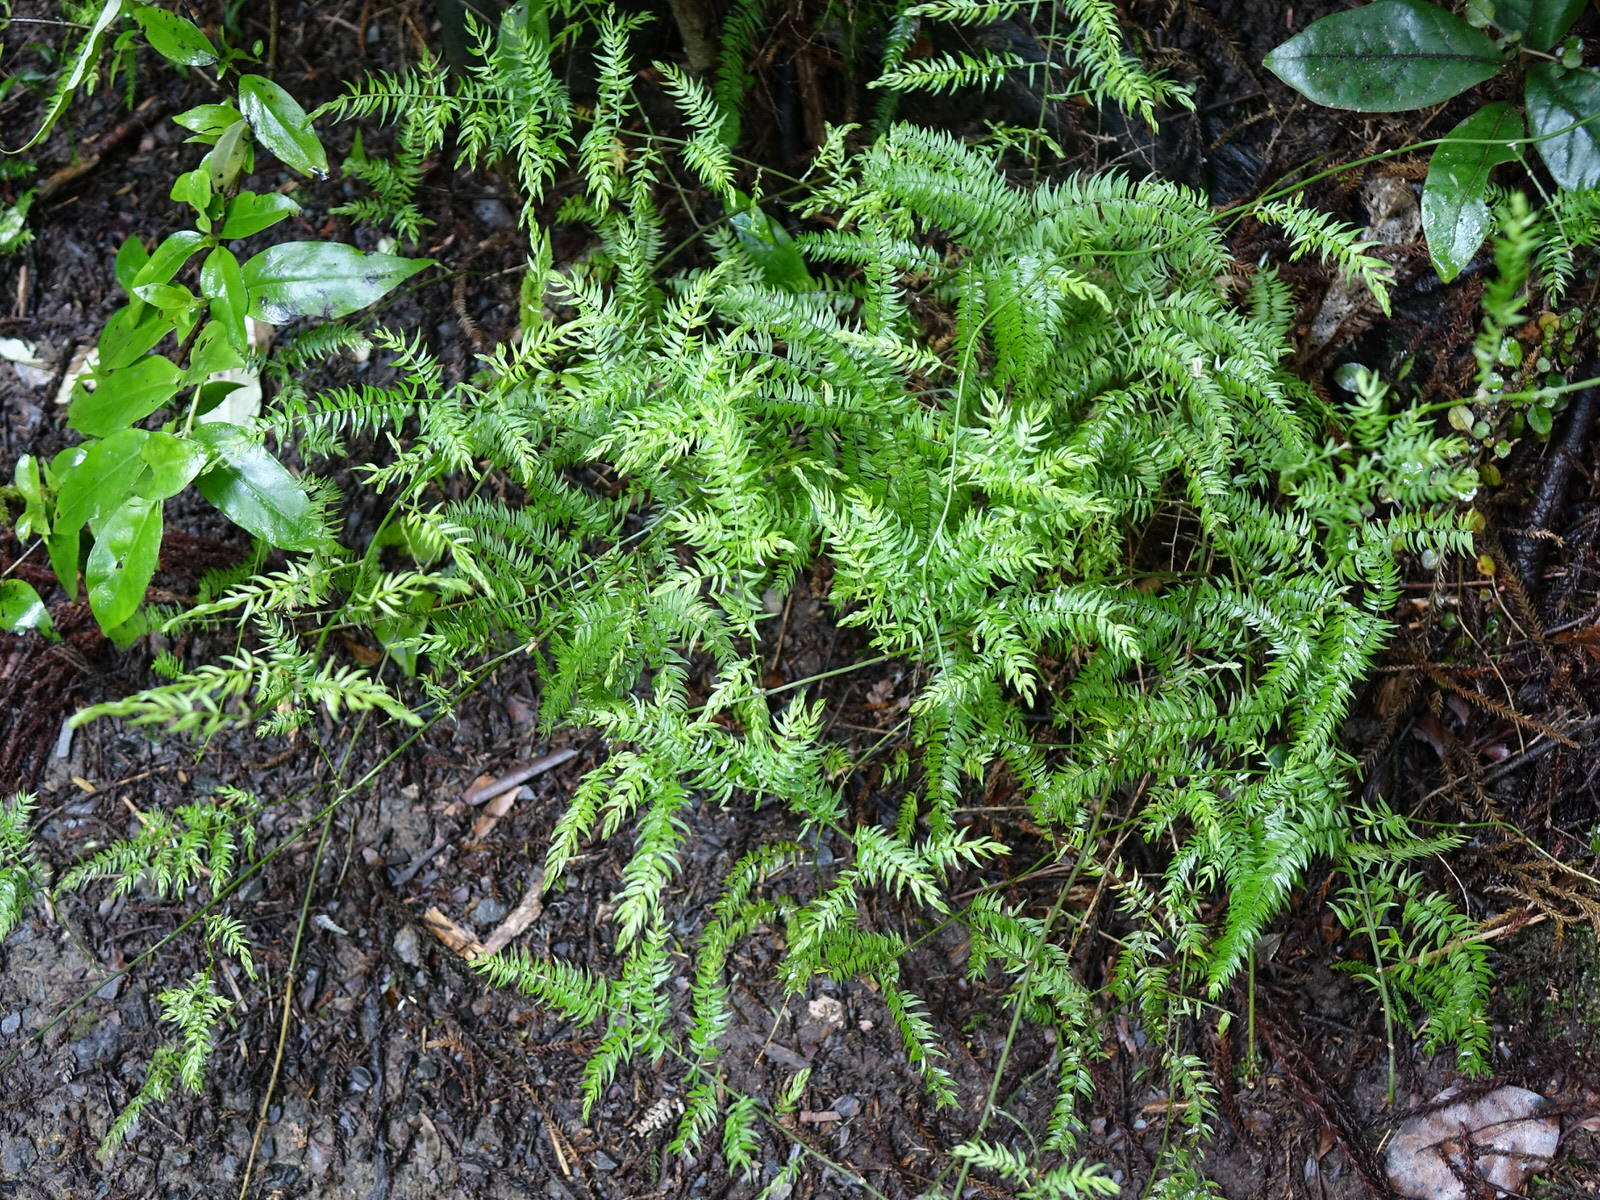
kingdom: Plantae
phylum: Tracheophyta
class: Liliopsida
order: Asparagales
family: Asparagaceae
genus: Asparagus
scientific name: Asparagus scandens
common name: Asparagus-fern
